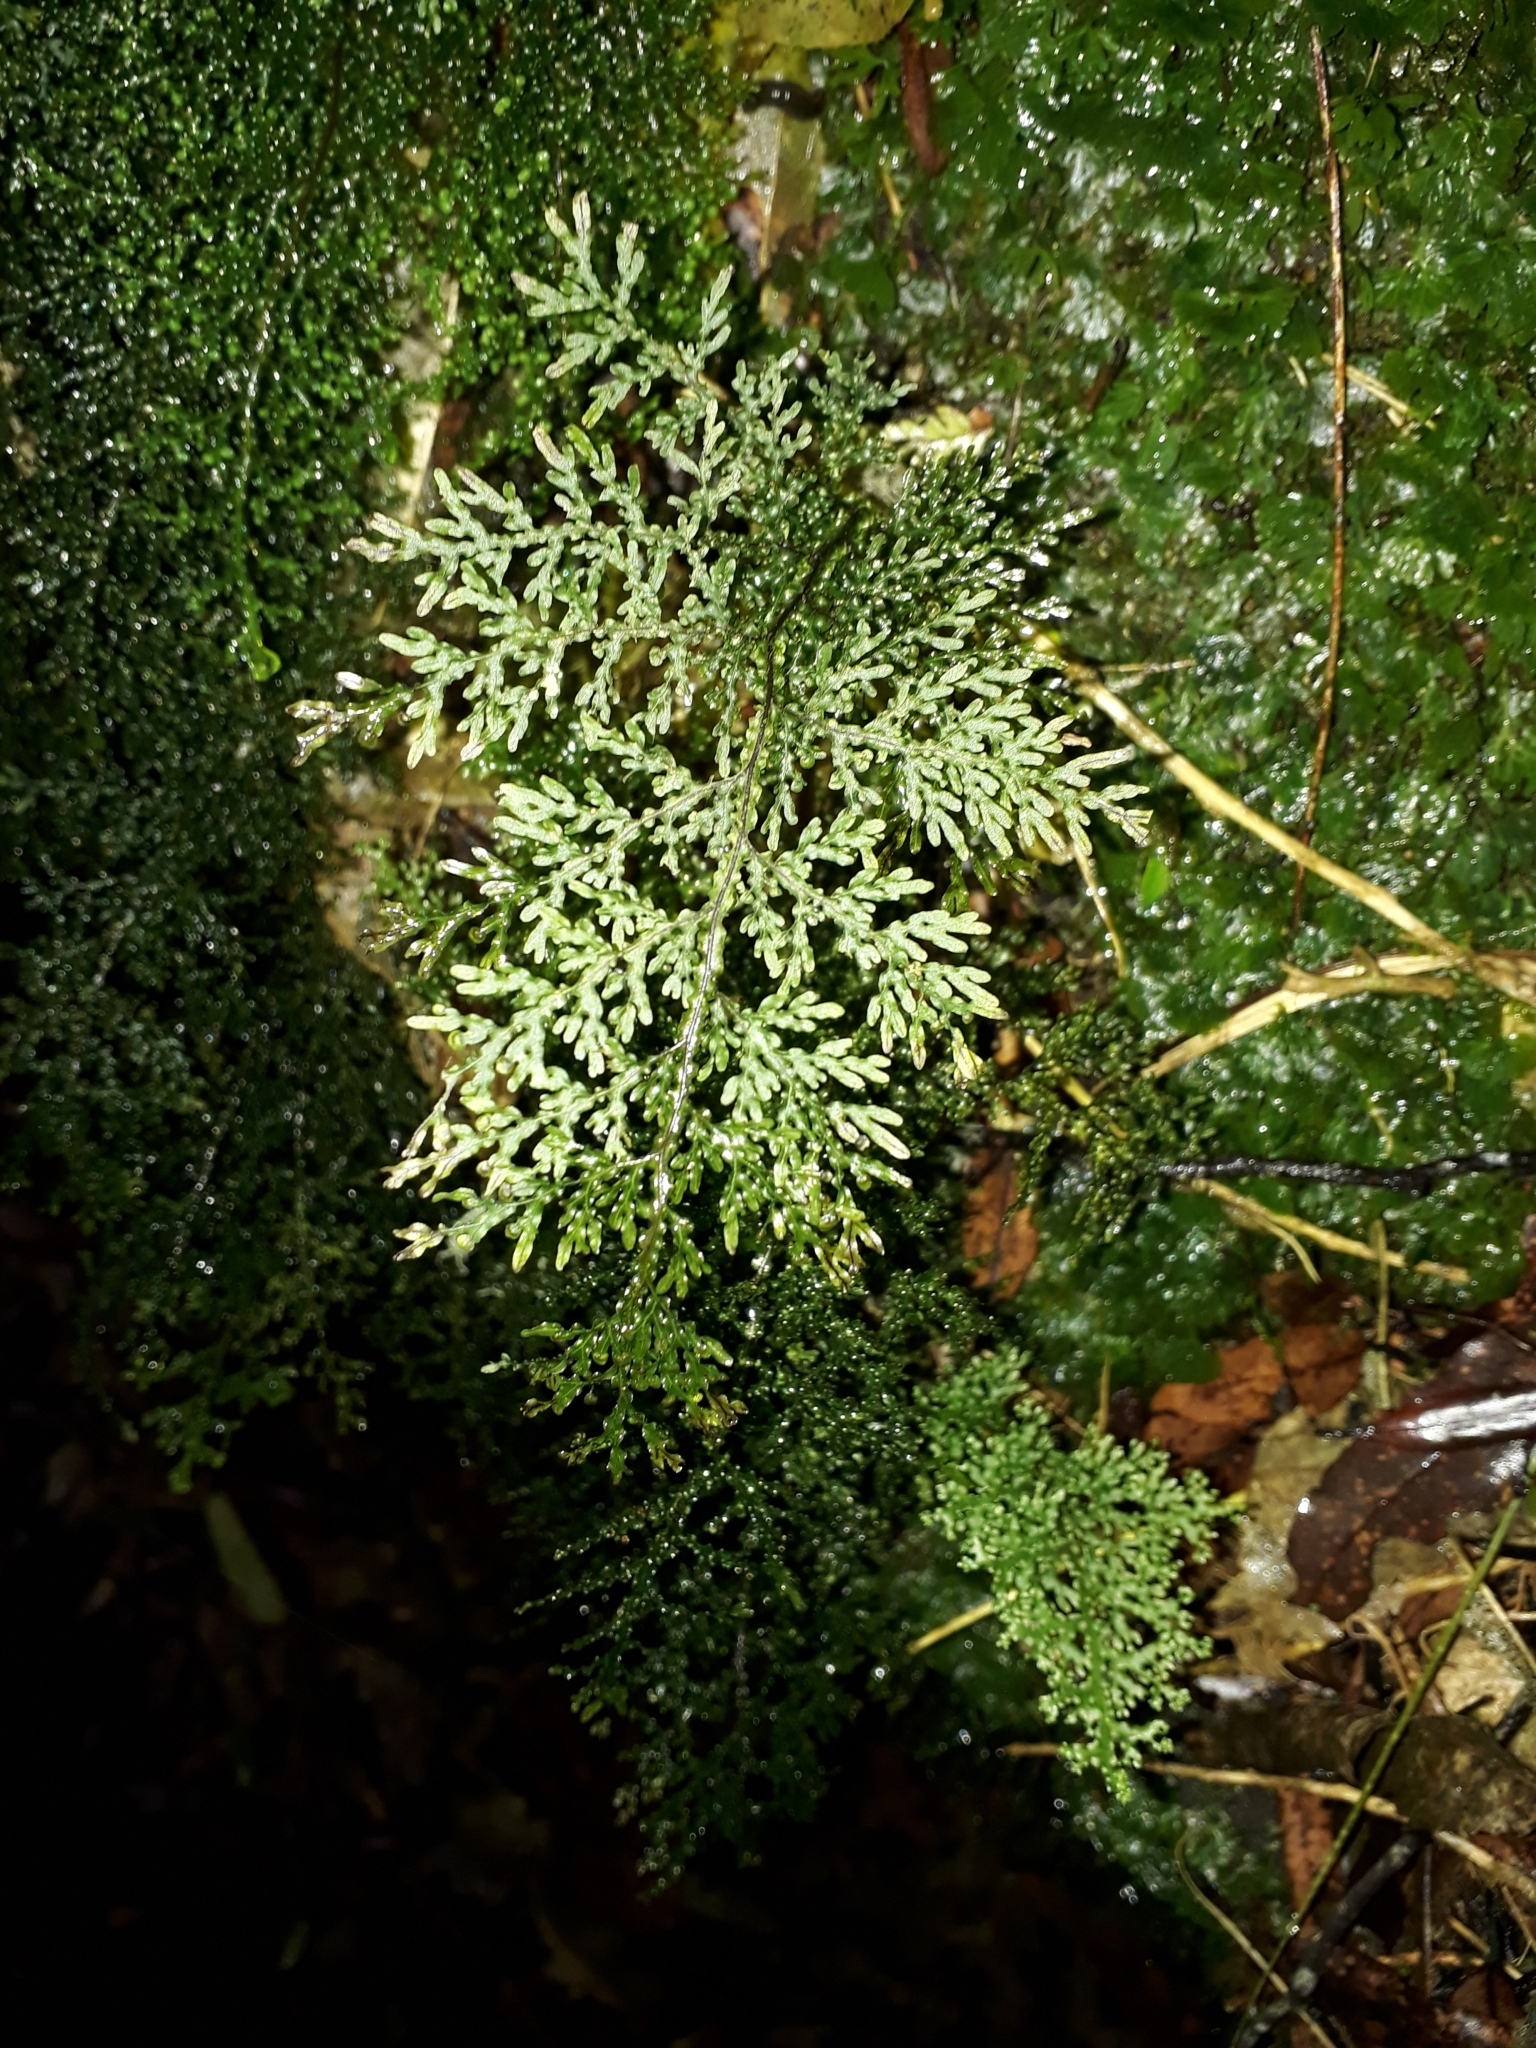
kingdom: Plantae
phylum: Tracheophyta
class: Polypodiopsida
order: Hymenophyllales
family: Hymenophyllaceae
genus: Hymenophyllum
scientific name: Hymenophyllum flexuosum
